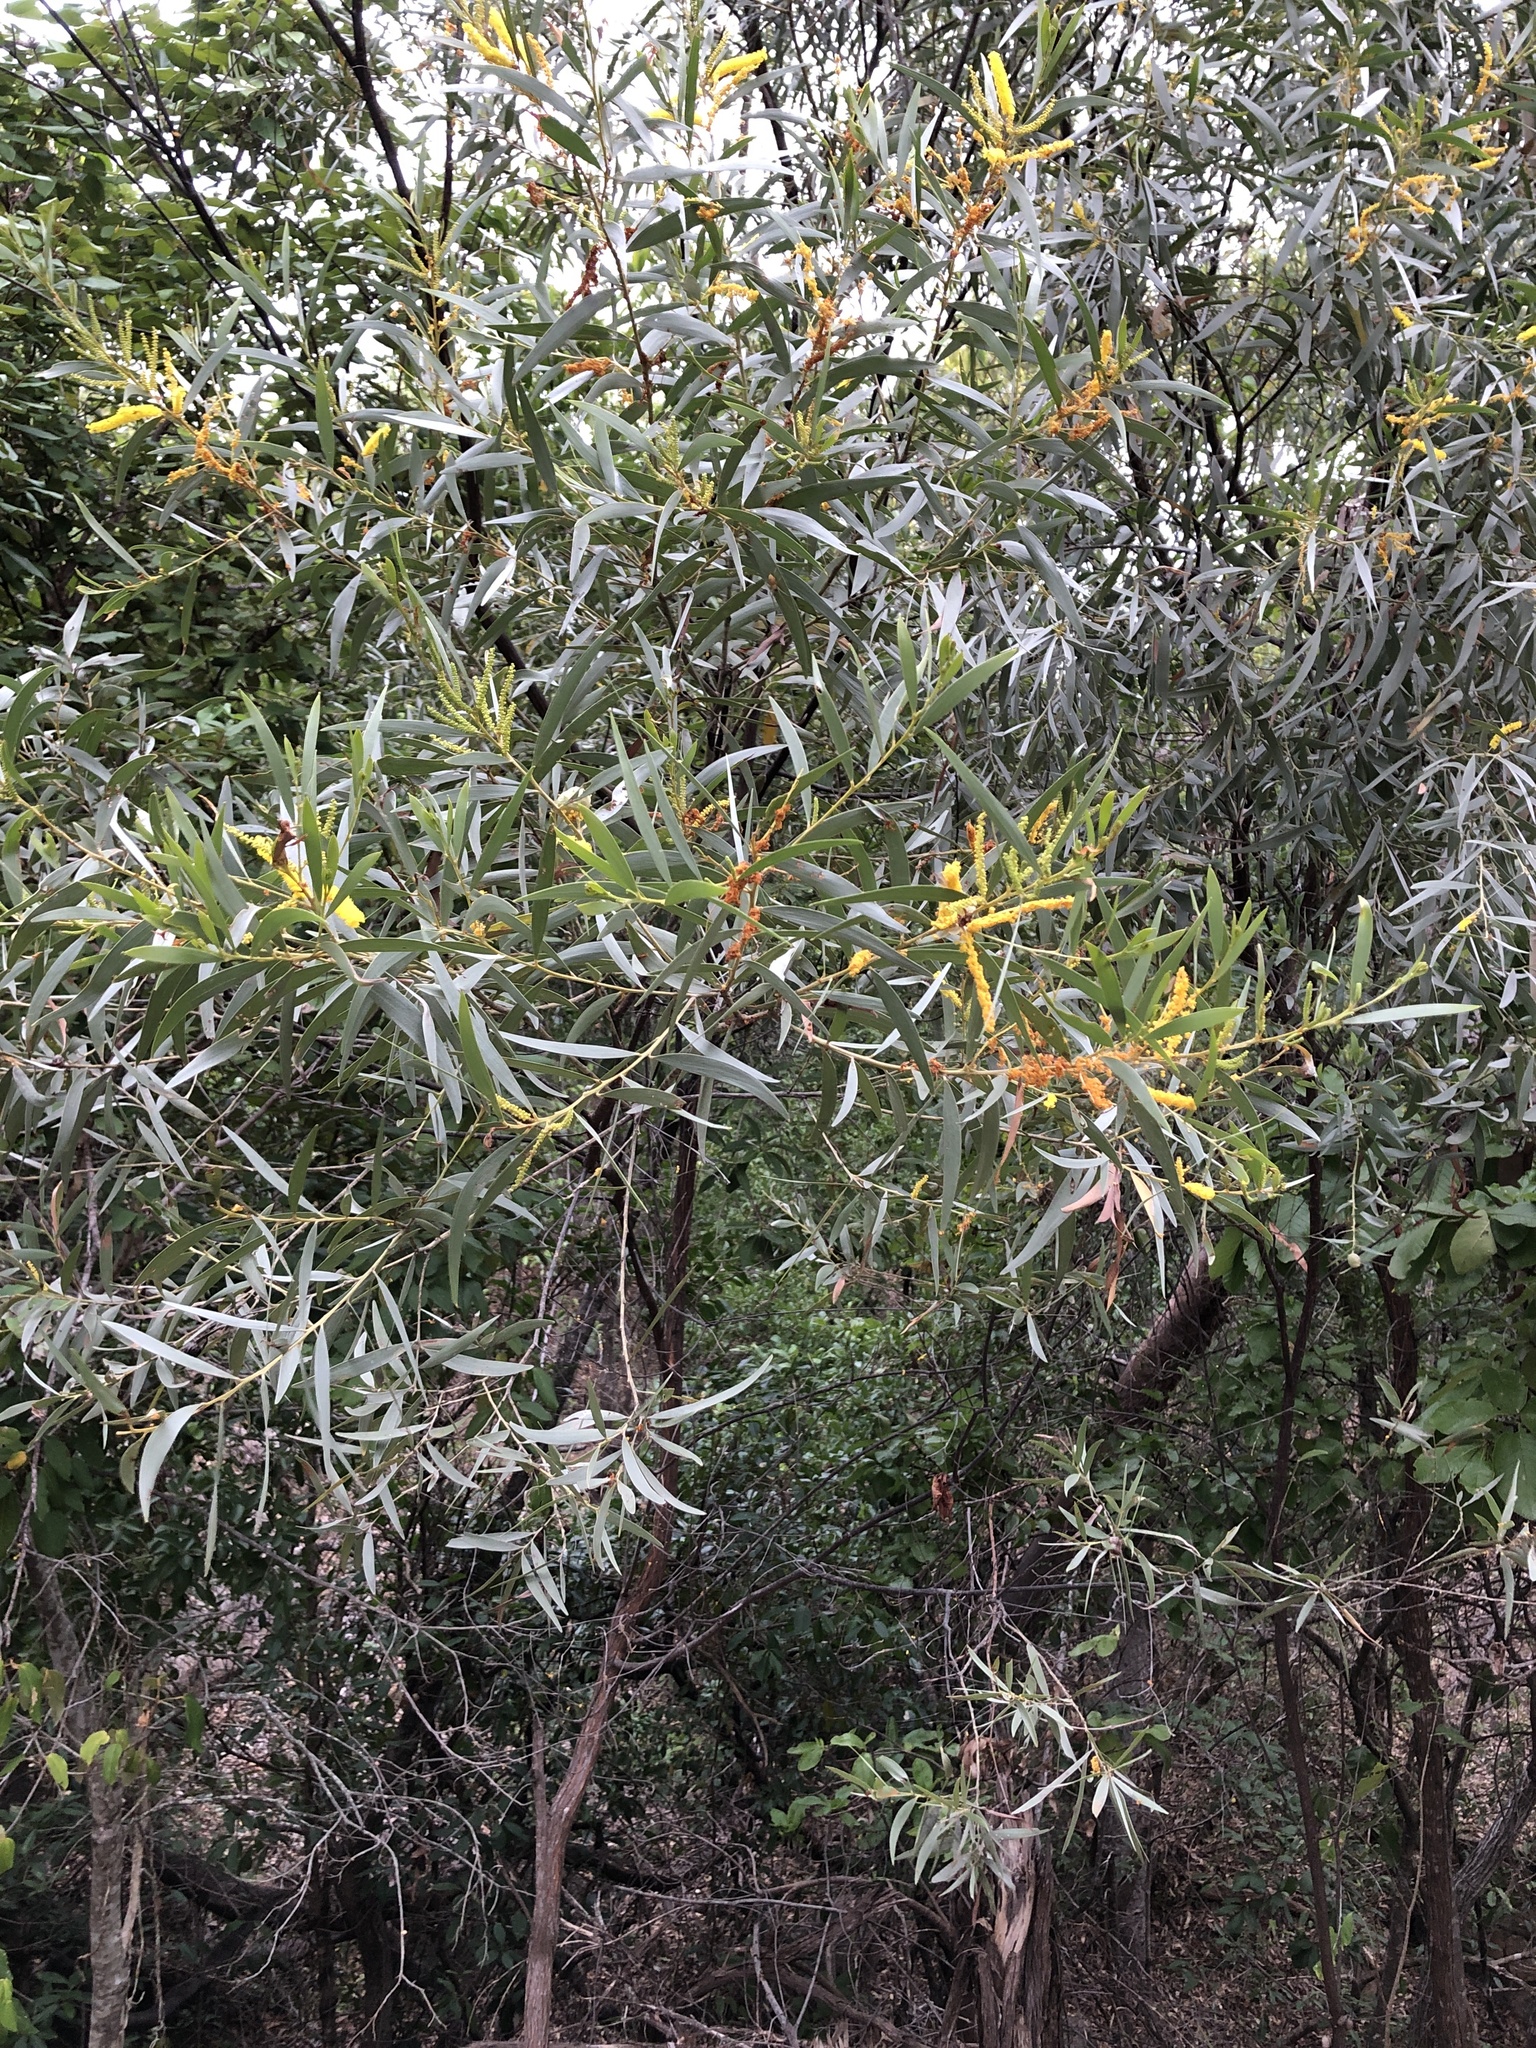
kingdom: Plantae
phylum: Tracheophyta
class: Magnoliopsida
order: Fabales
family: Fabaceae
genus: Acacia
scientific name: Acacia leptostachya
